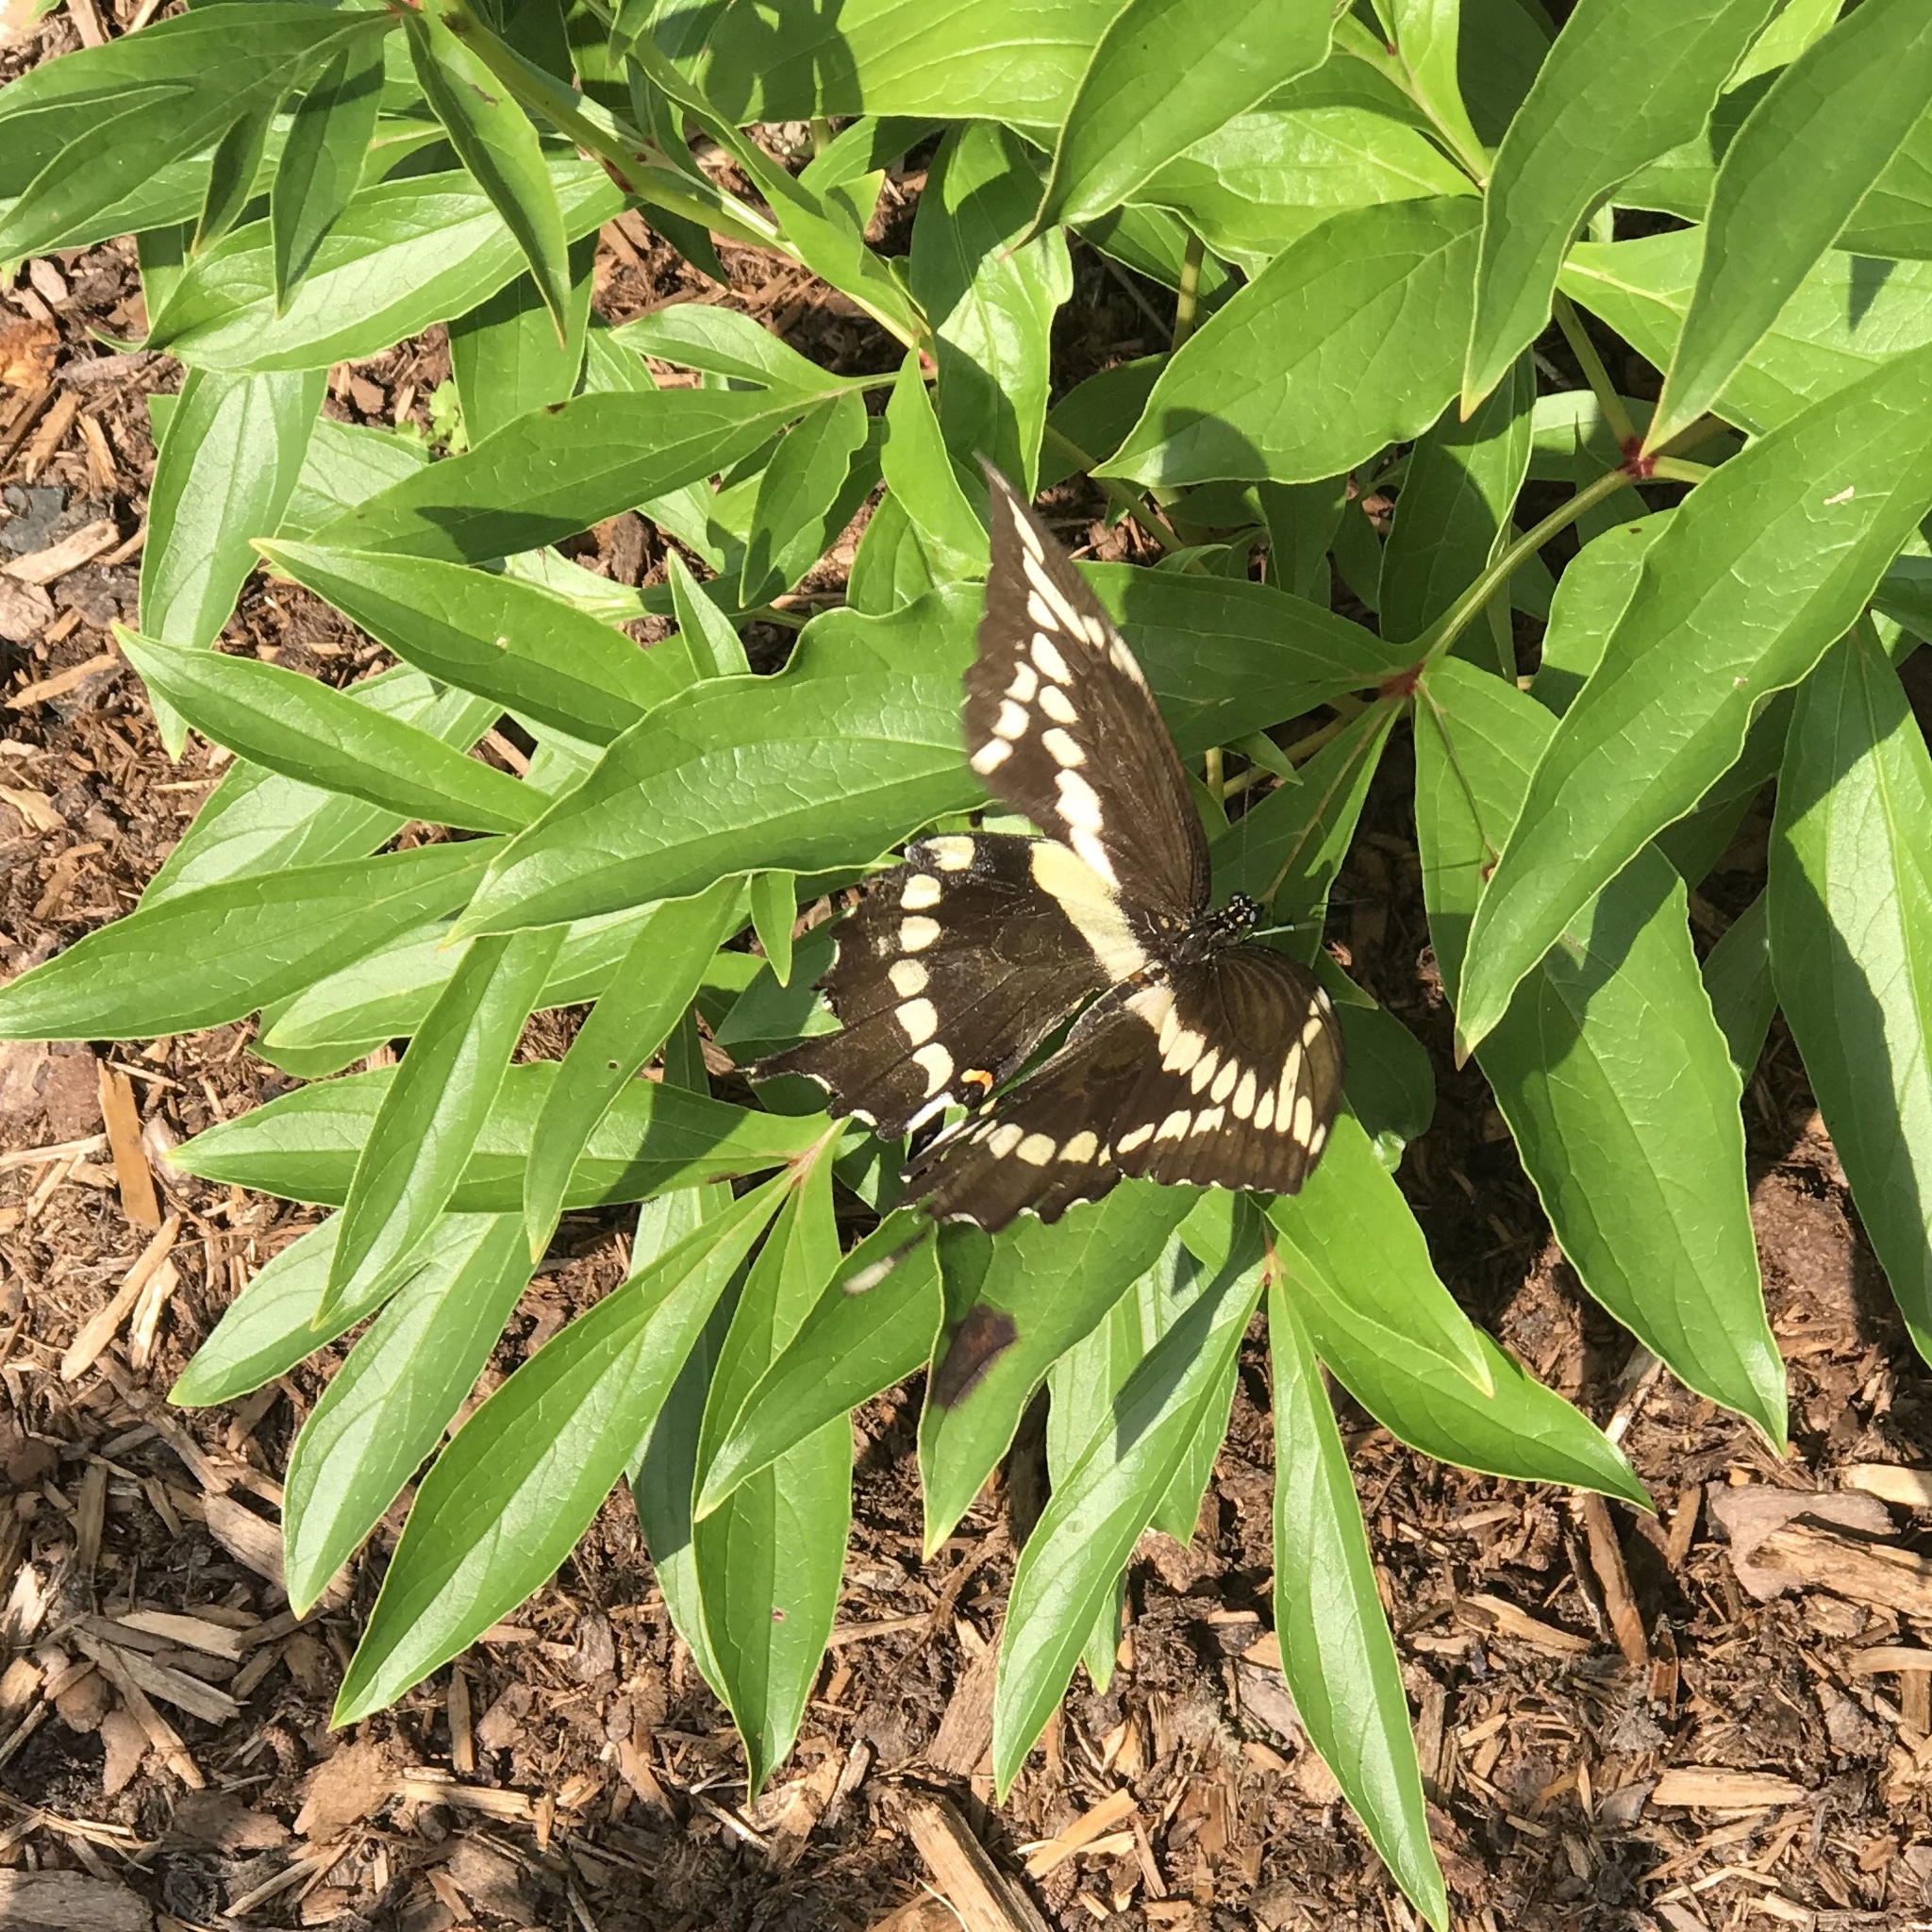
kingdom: Animalia
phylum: Arthropoda
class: Insecta
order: Lepidoptera
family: Papilionidae
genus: Papilio
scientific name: Papilio cresphontes
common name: Giant swallowtail
